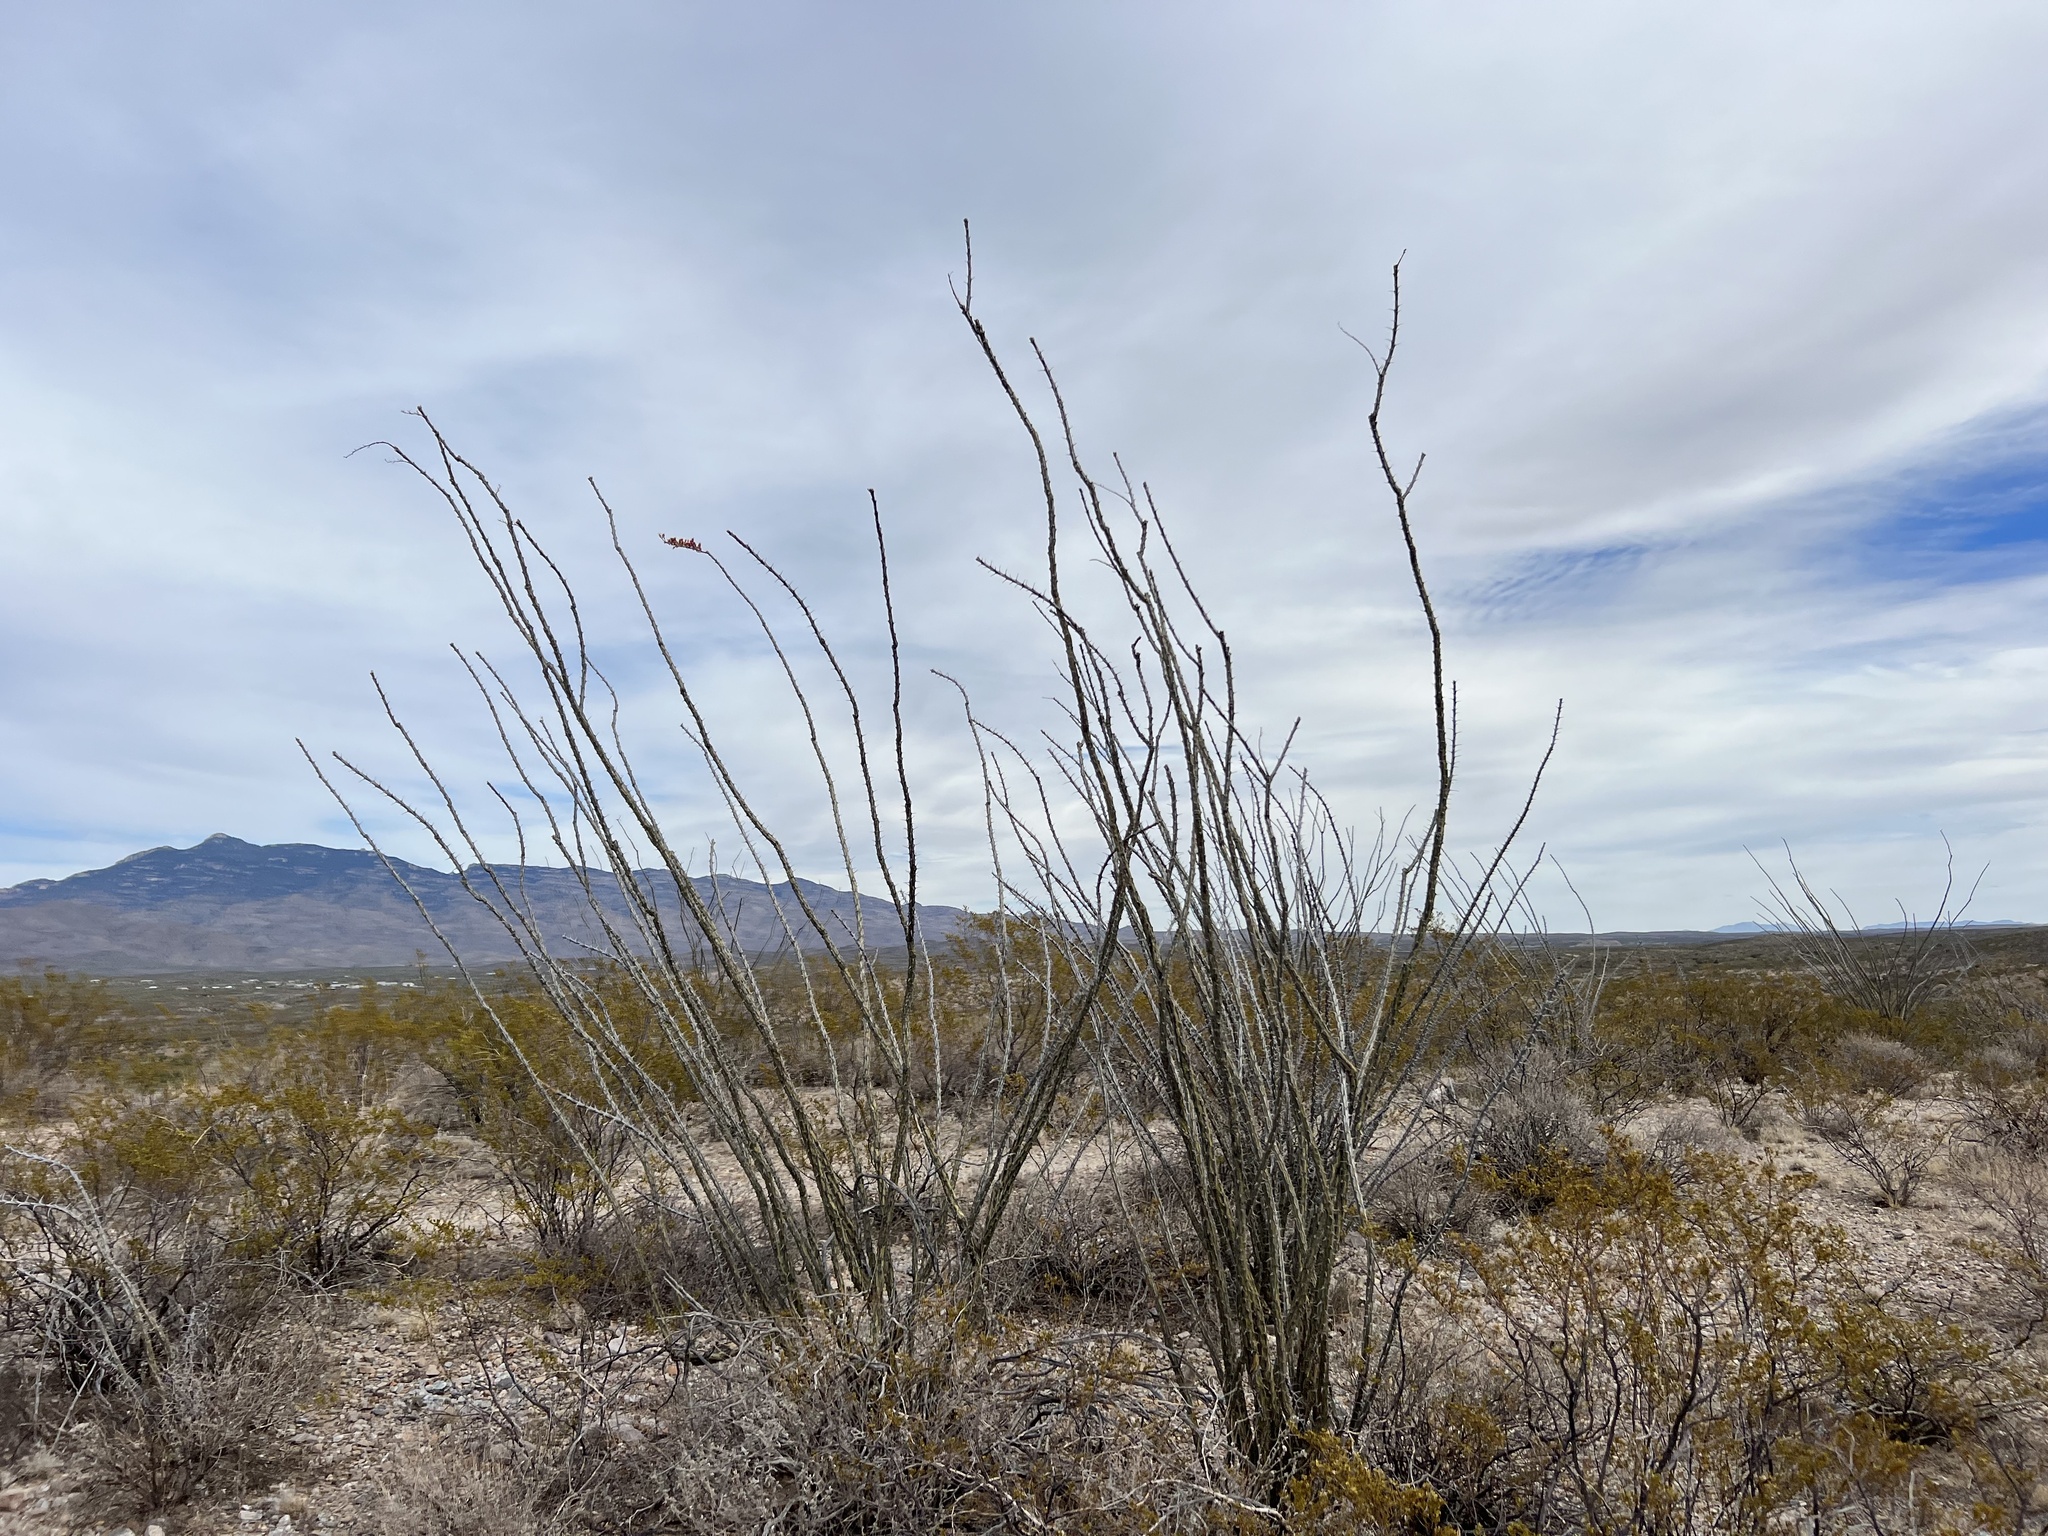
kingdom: Plantae
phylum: Tracheophyta
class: Magnoliopsida
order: Ericales
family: Fouquieriaceae
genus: Fouquieria
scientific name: Fouquieria splendens
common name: Vine-cactus
